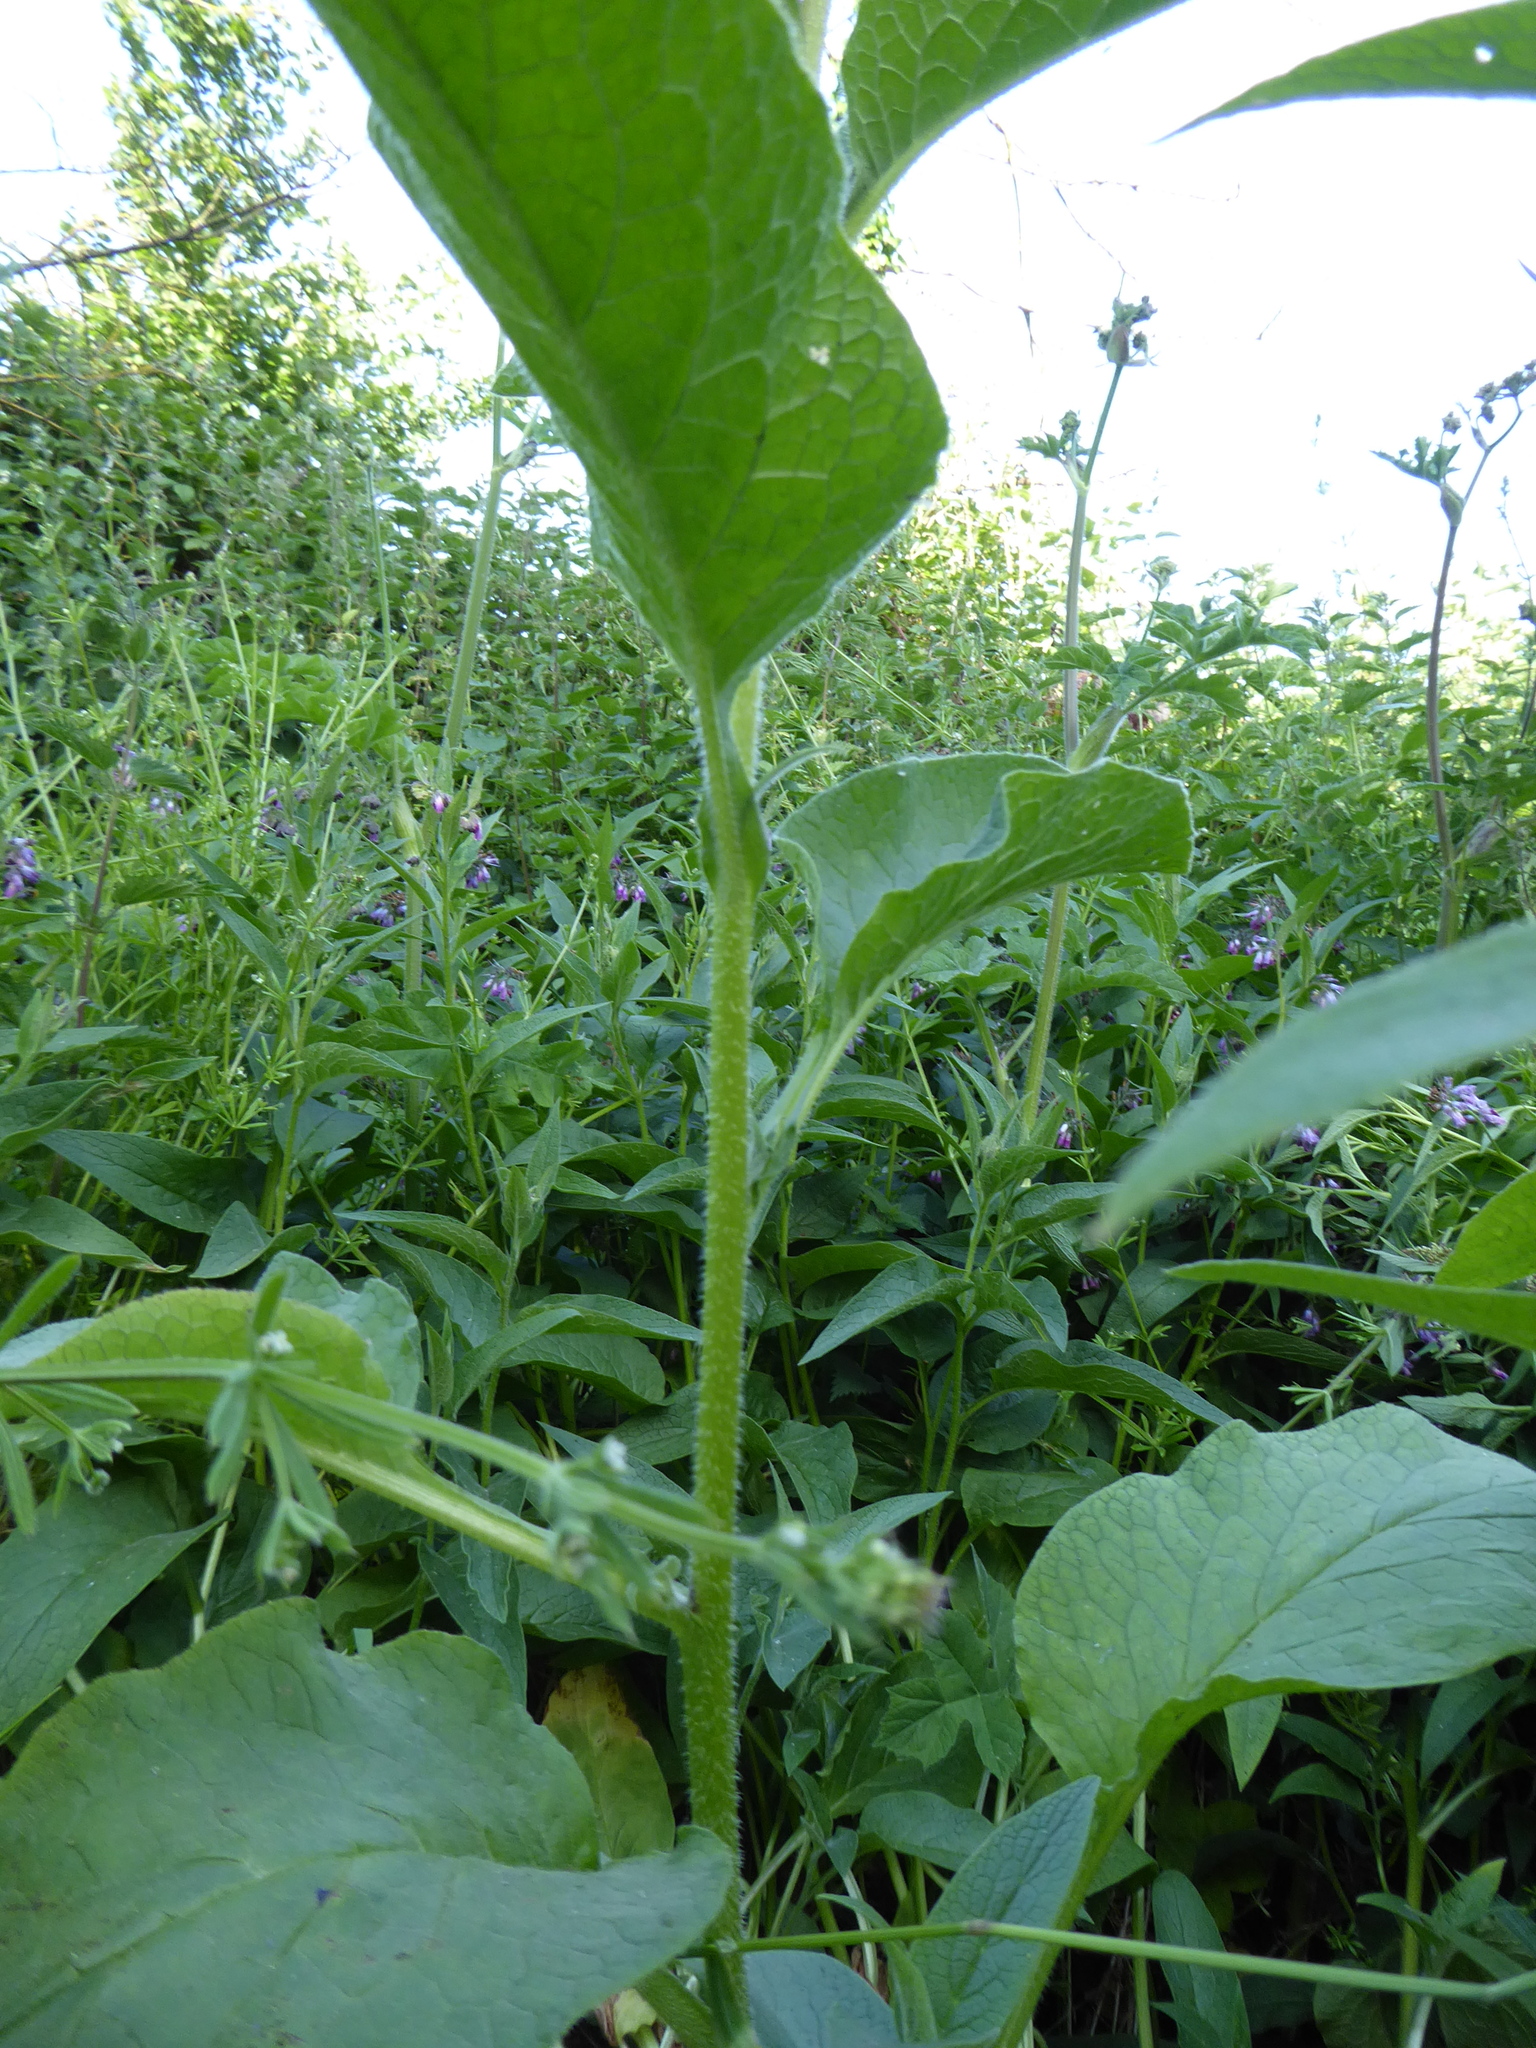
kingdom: Plantae
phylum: Tracheophyta
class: Magnoliopsida
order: Boraginales
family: Boraginaceae
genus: Symphytum
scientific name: Symphytum officinale
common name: Common comfrey
